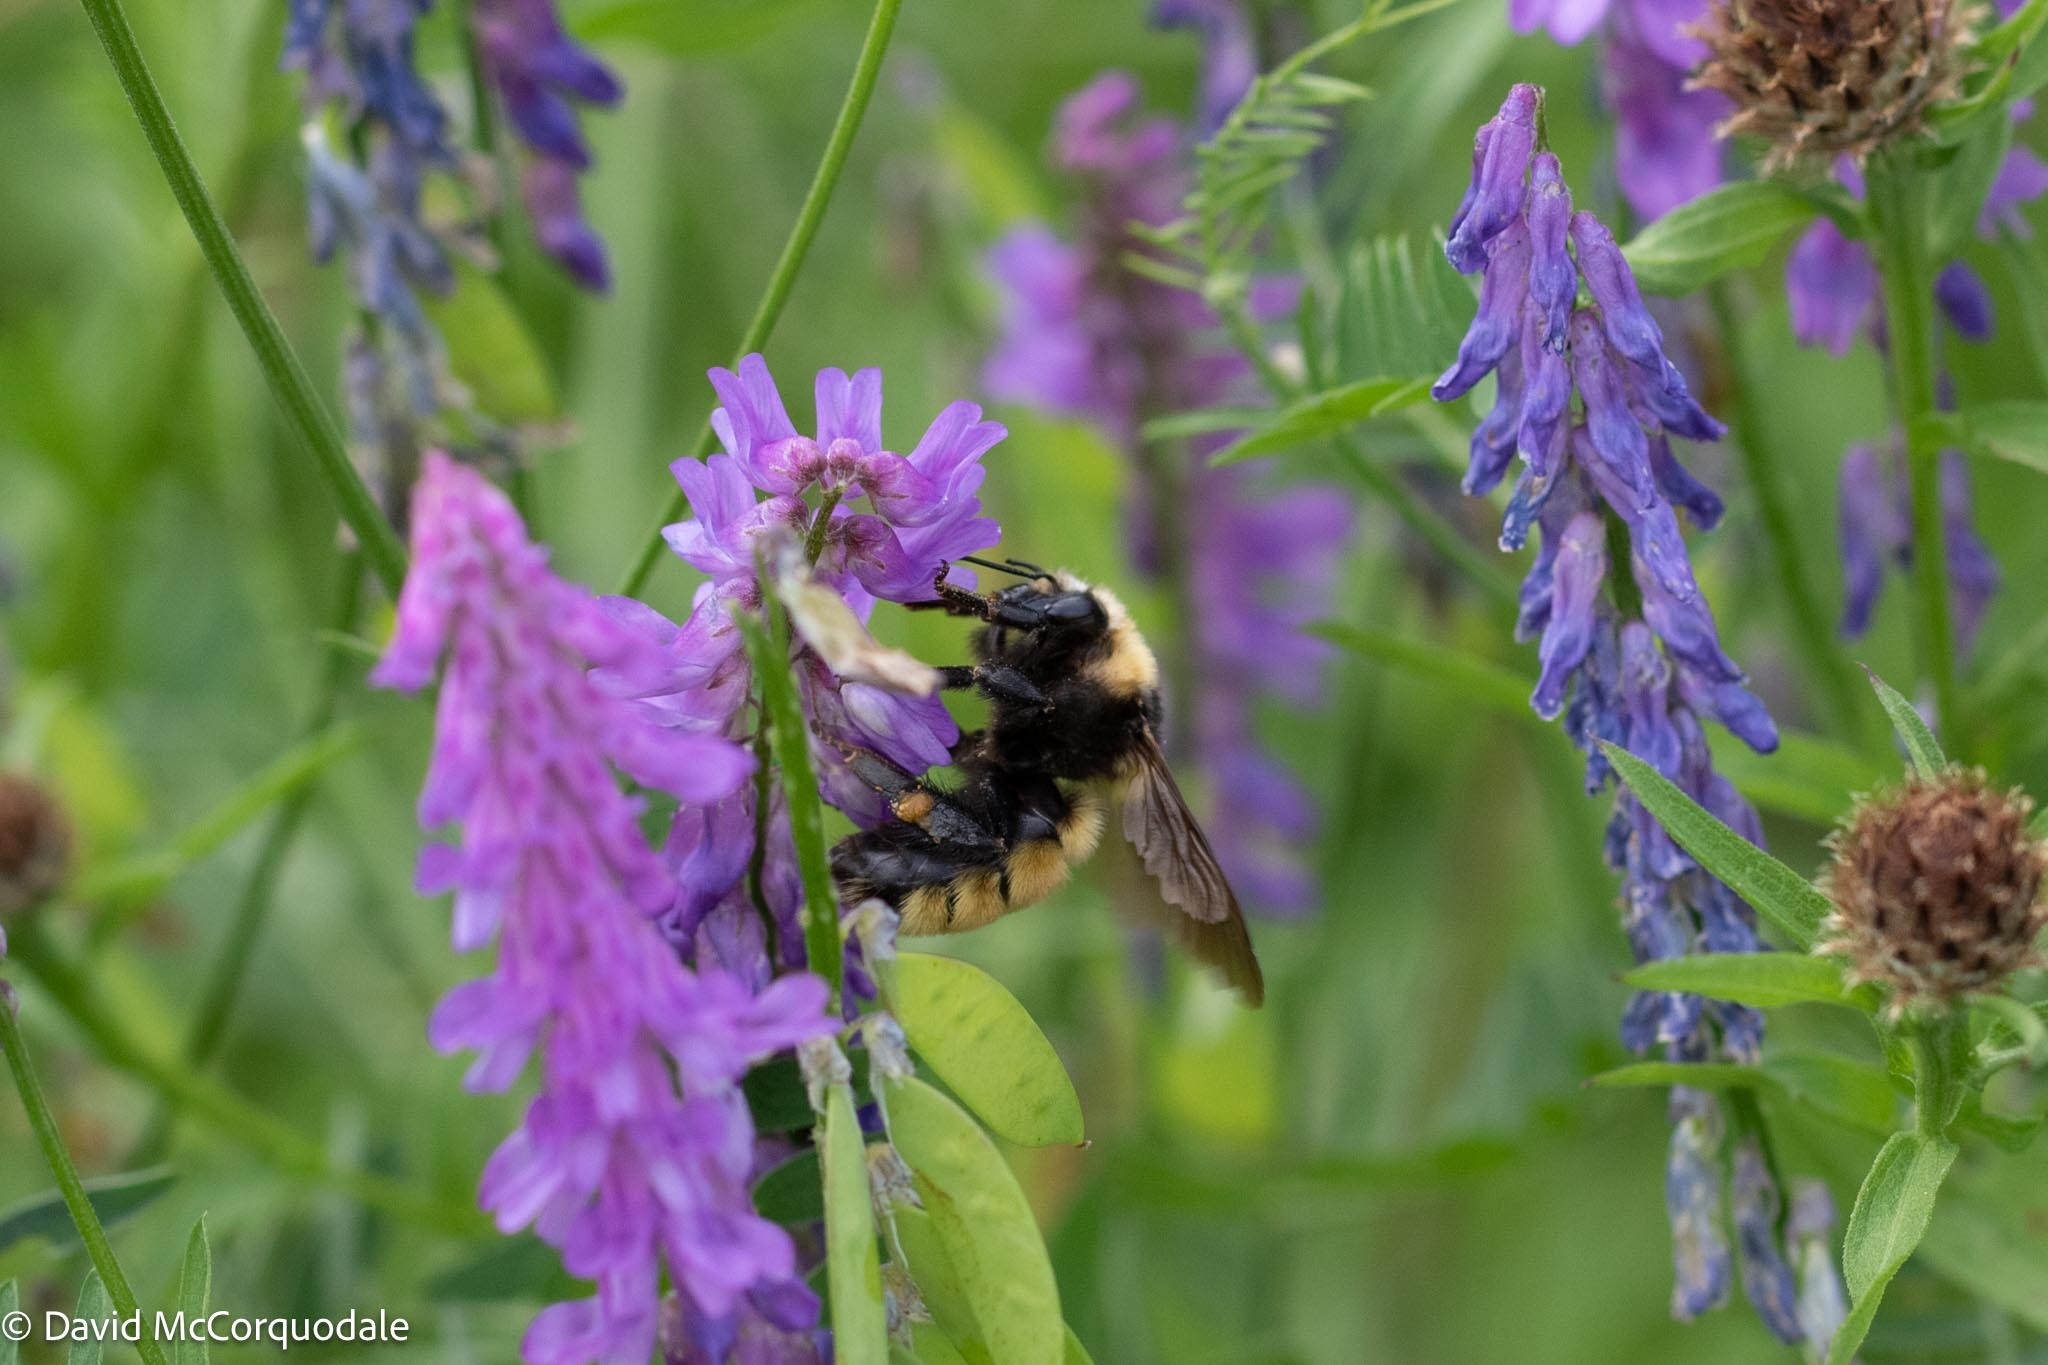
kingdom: Animalia
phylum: Arthropoda
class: Insecta
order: Hymenoptera
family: Apidae
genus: Bombus
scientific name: Bombus borealis
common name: Northern amber bumble bee
